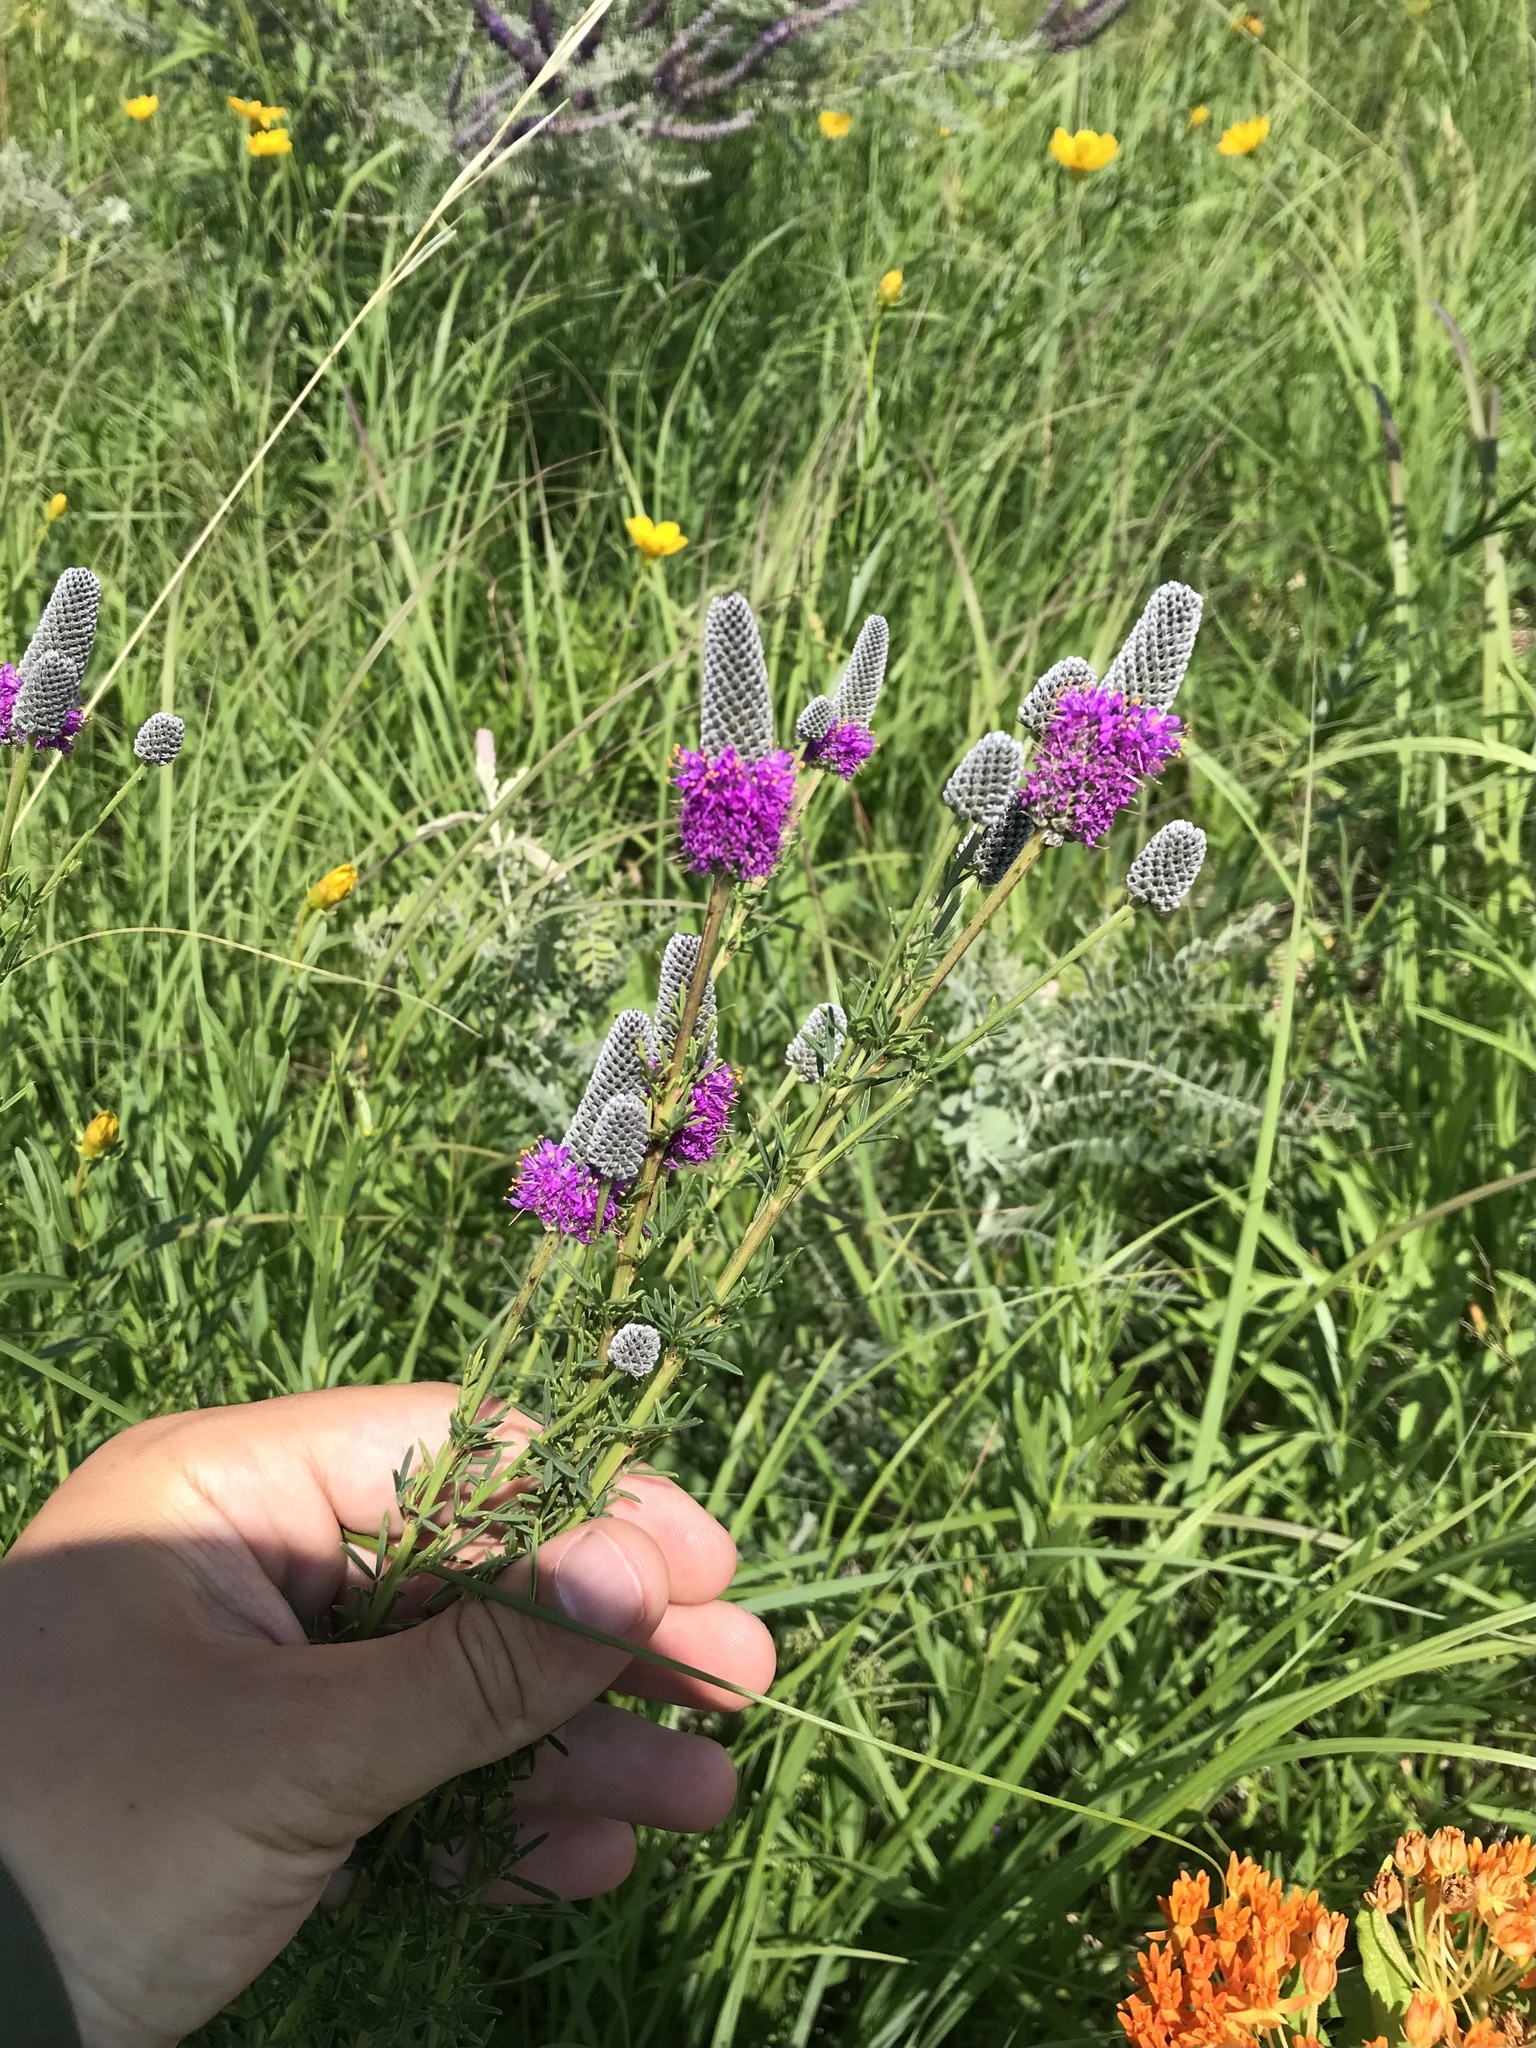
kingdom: Plantae
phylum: Tracheophyta
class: Magnoliopsida
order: Fabales
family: Fabaceae
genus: Dalea
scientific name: Dalea purpurea
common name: Purple prairie-clover
